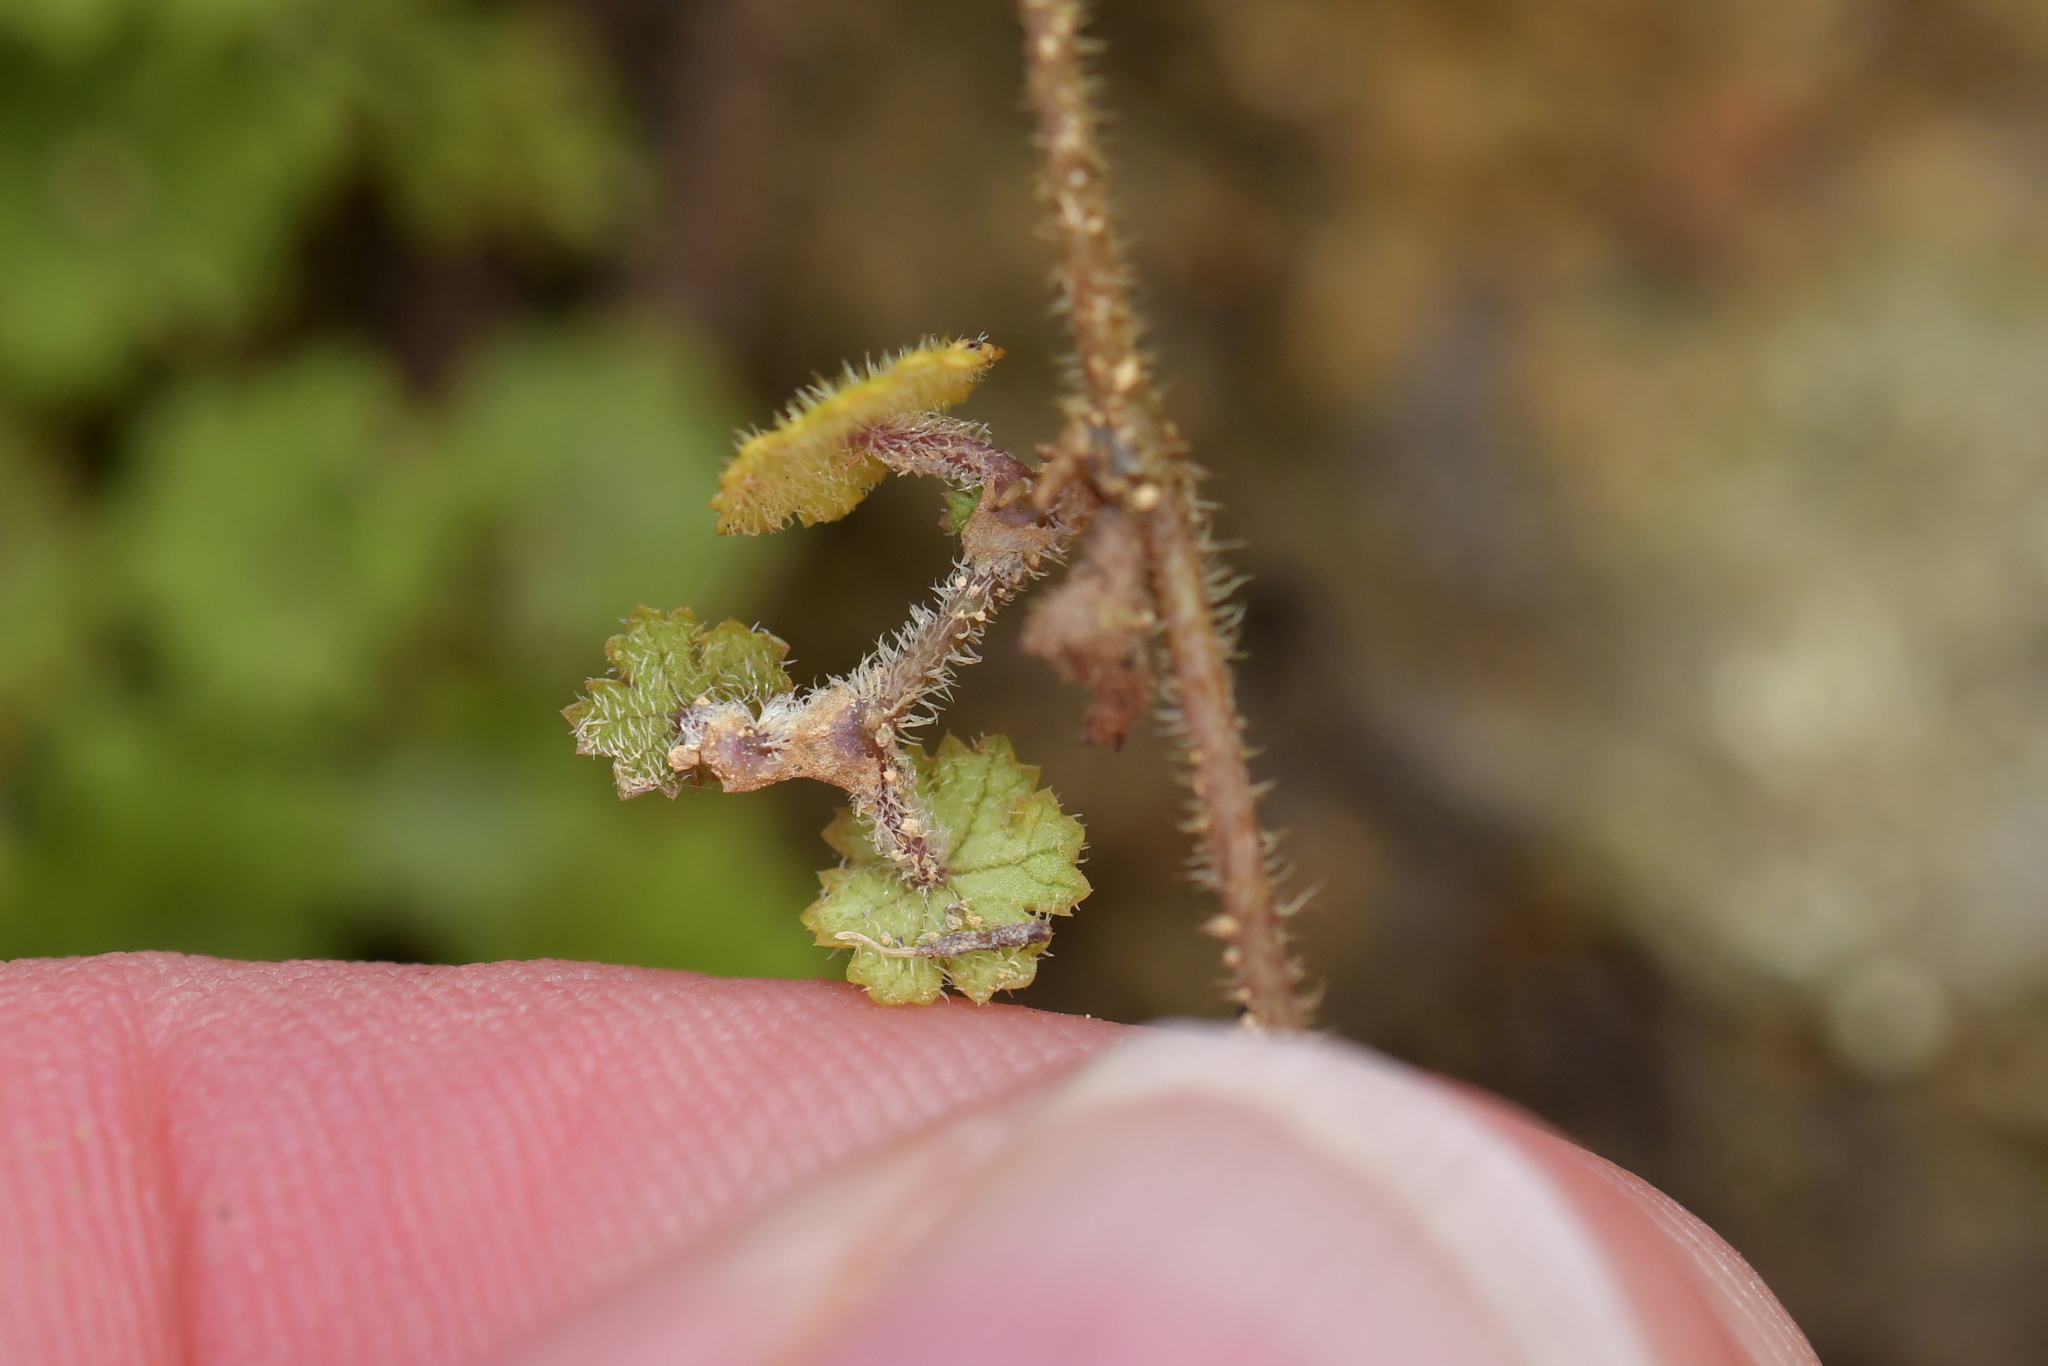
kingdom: Plantae
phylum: Tracheophyta
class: Magnoliopsida
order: Apiales
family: Araliaceae
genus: Hydrocotyle
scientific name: Hydrocotyle moschata
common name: Hairy pennywort
